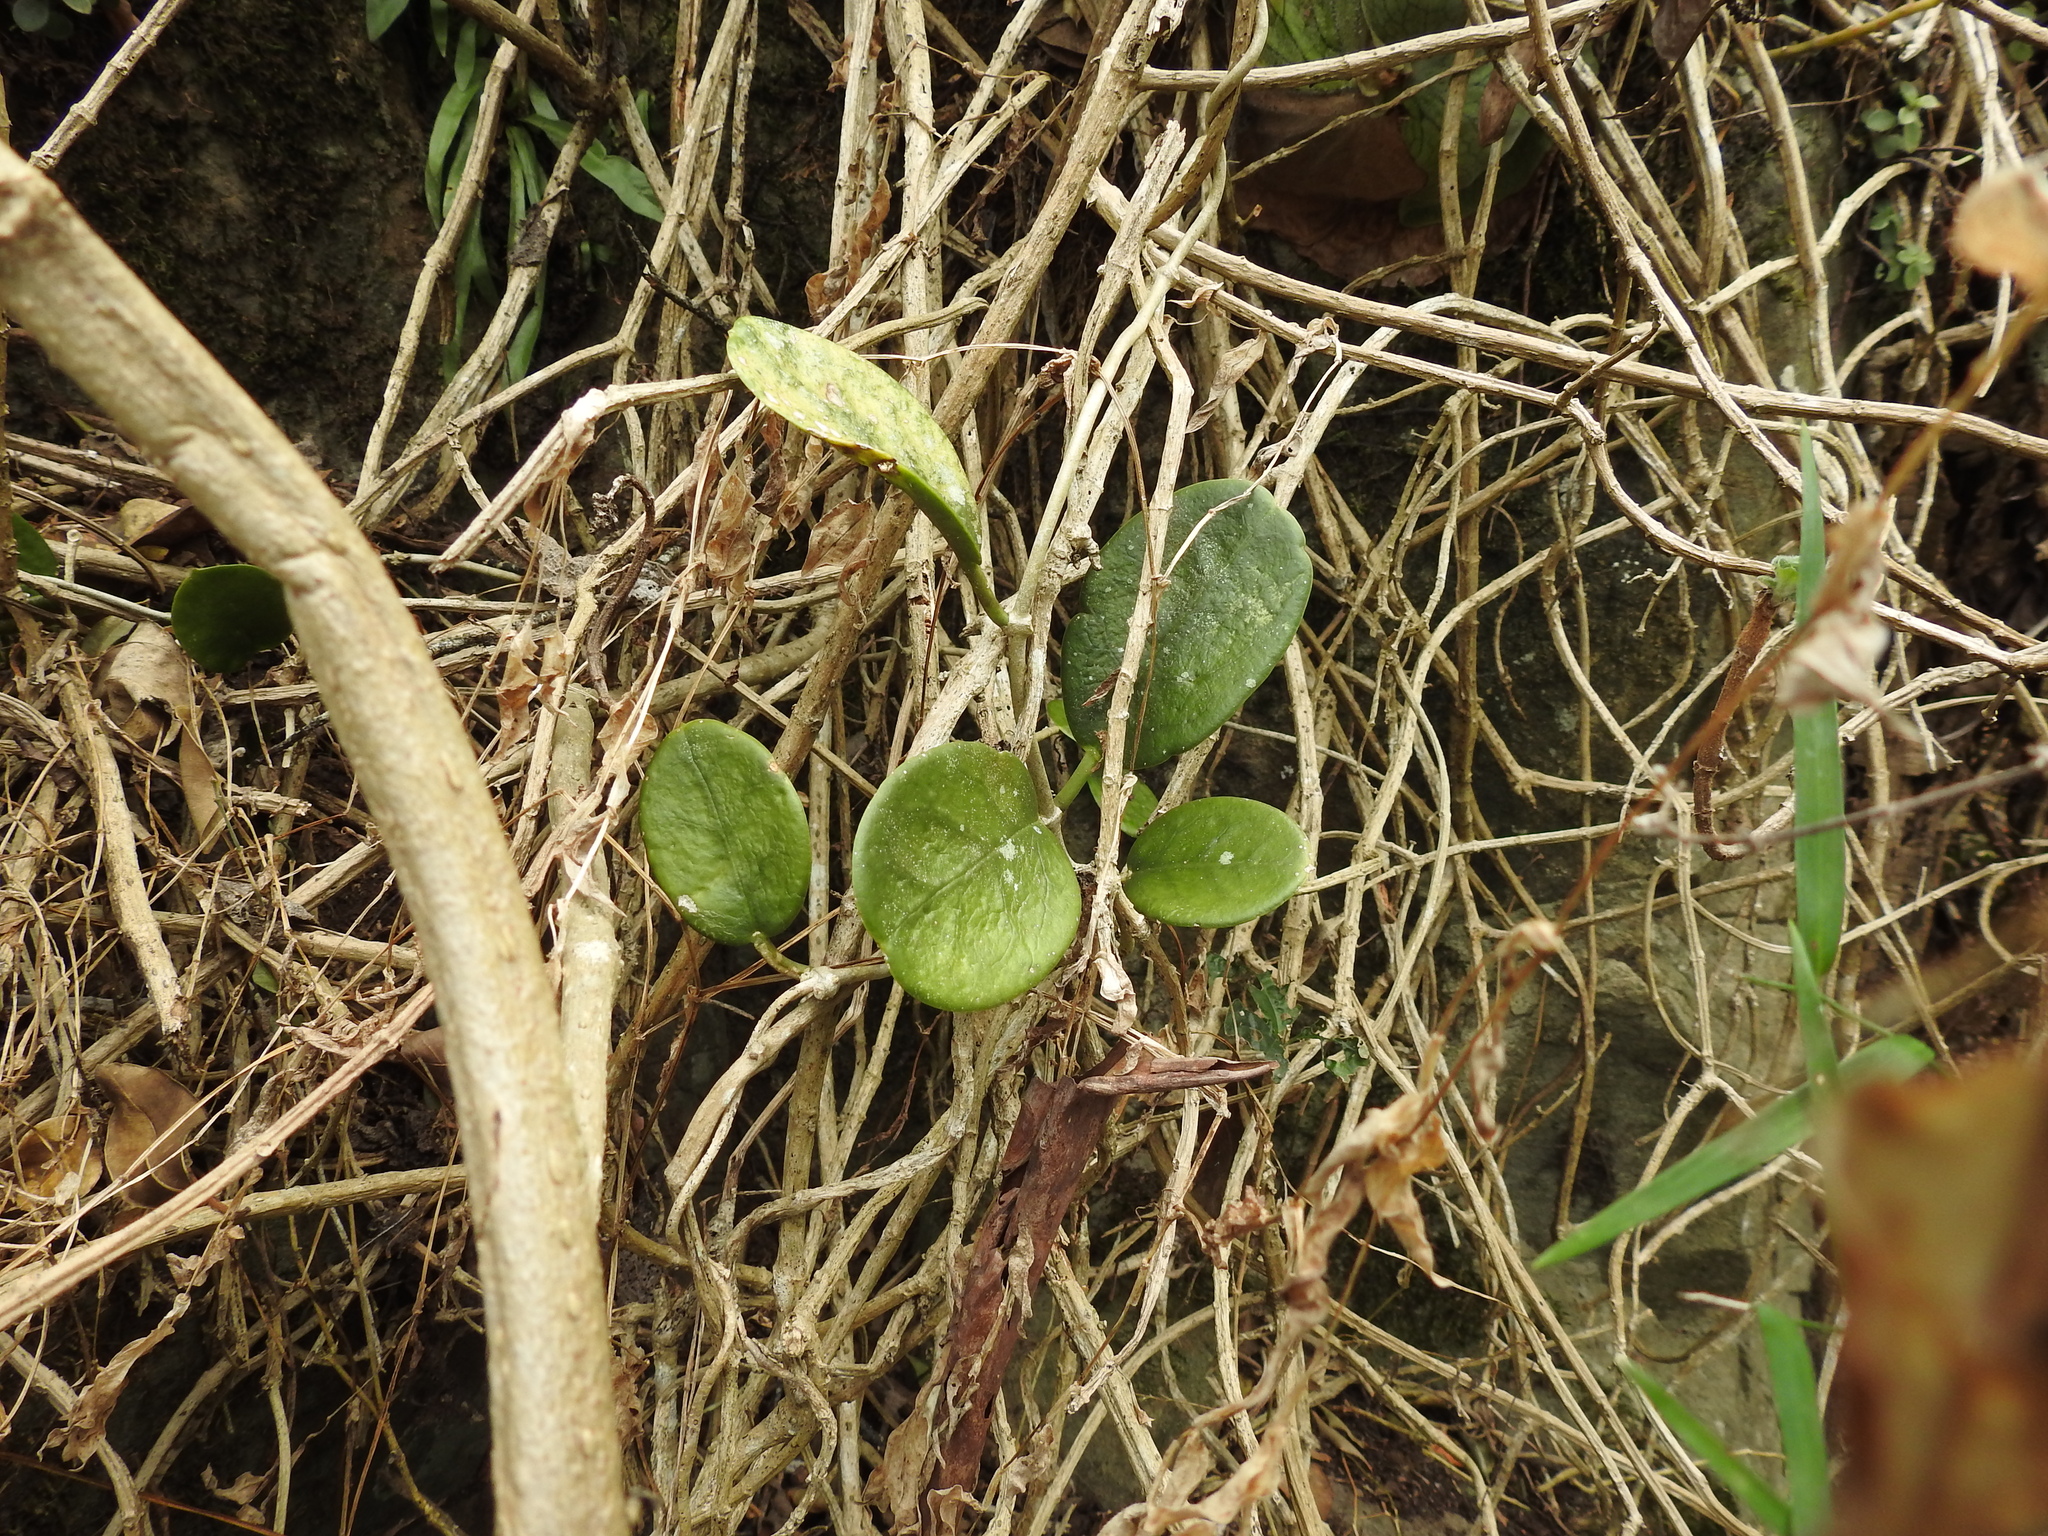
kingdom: Plantae
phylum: Tracheophyta
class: Magnoliopsida
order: Gentianales
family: Apocynaceae
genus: Hoya
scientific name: Hoya australis
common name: Wax flower
